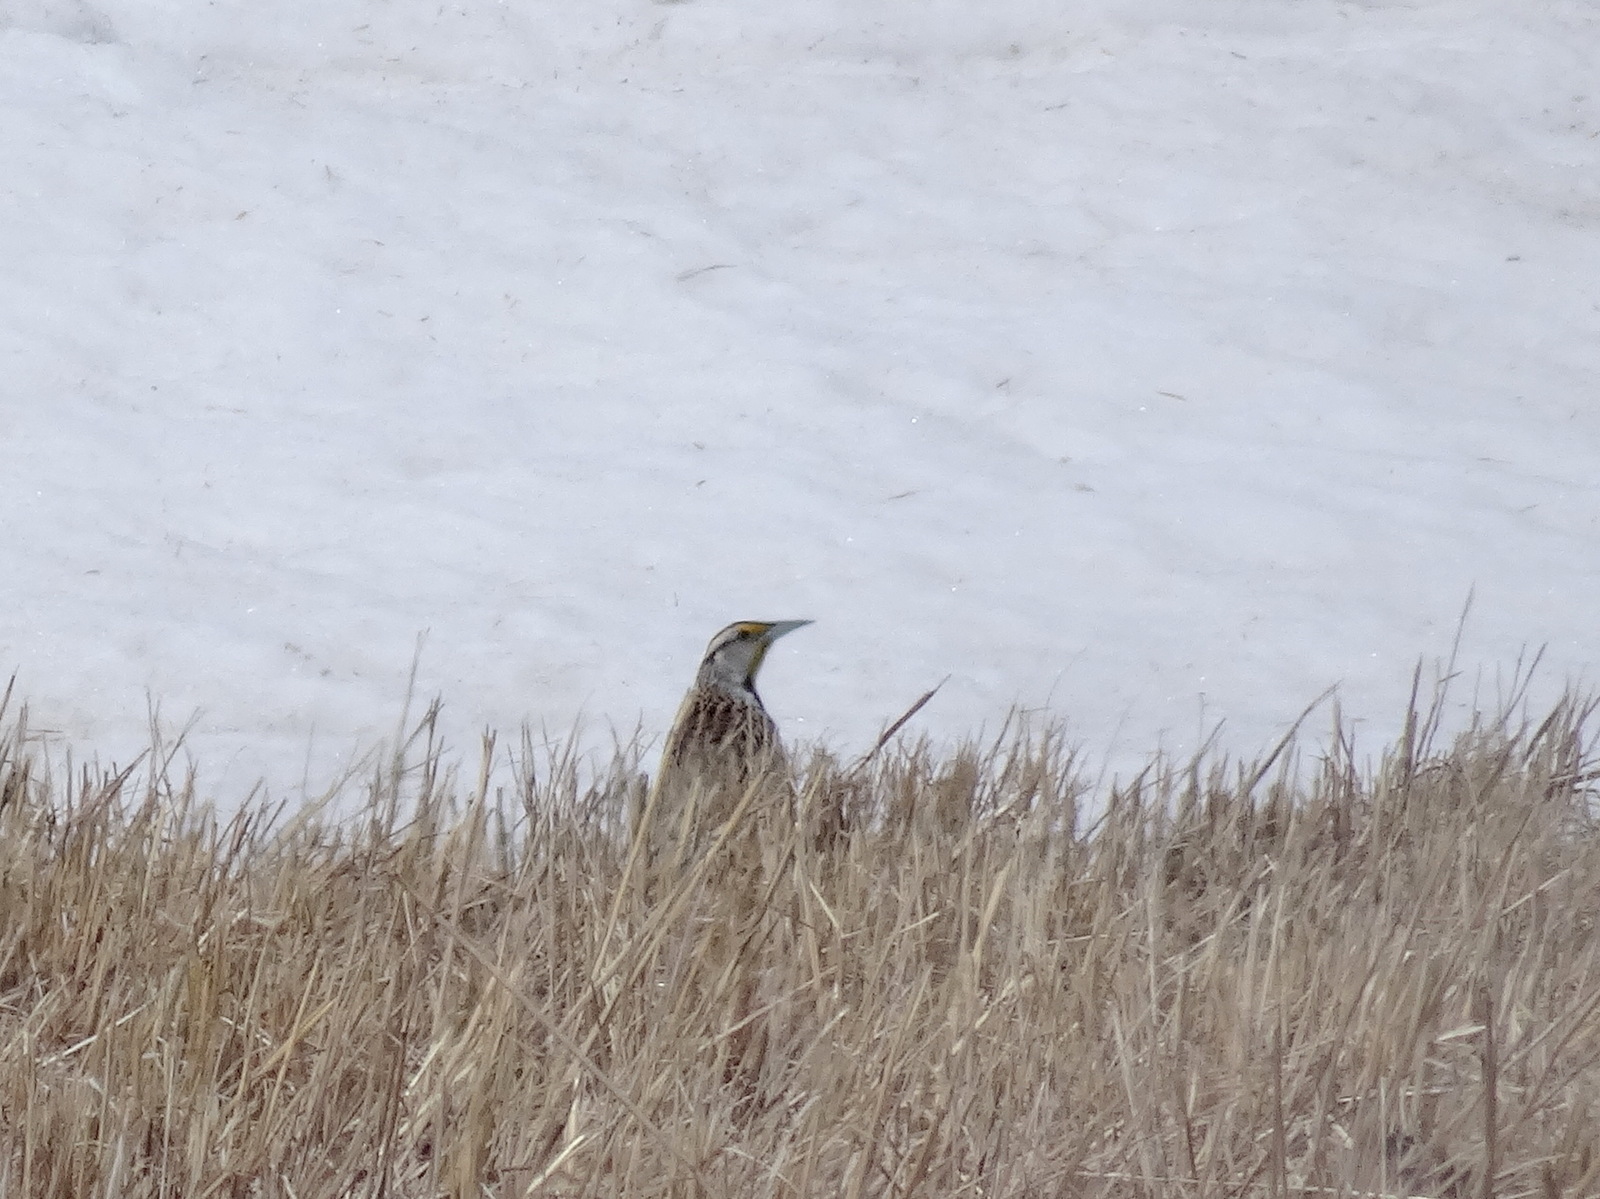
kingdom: Animalia
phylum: Chordata
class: Aves
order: Passeriformes
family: Icteridae
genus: Sturnella
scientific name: Sturnella magna
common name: Eastern meadowlark
